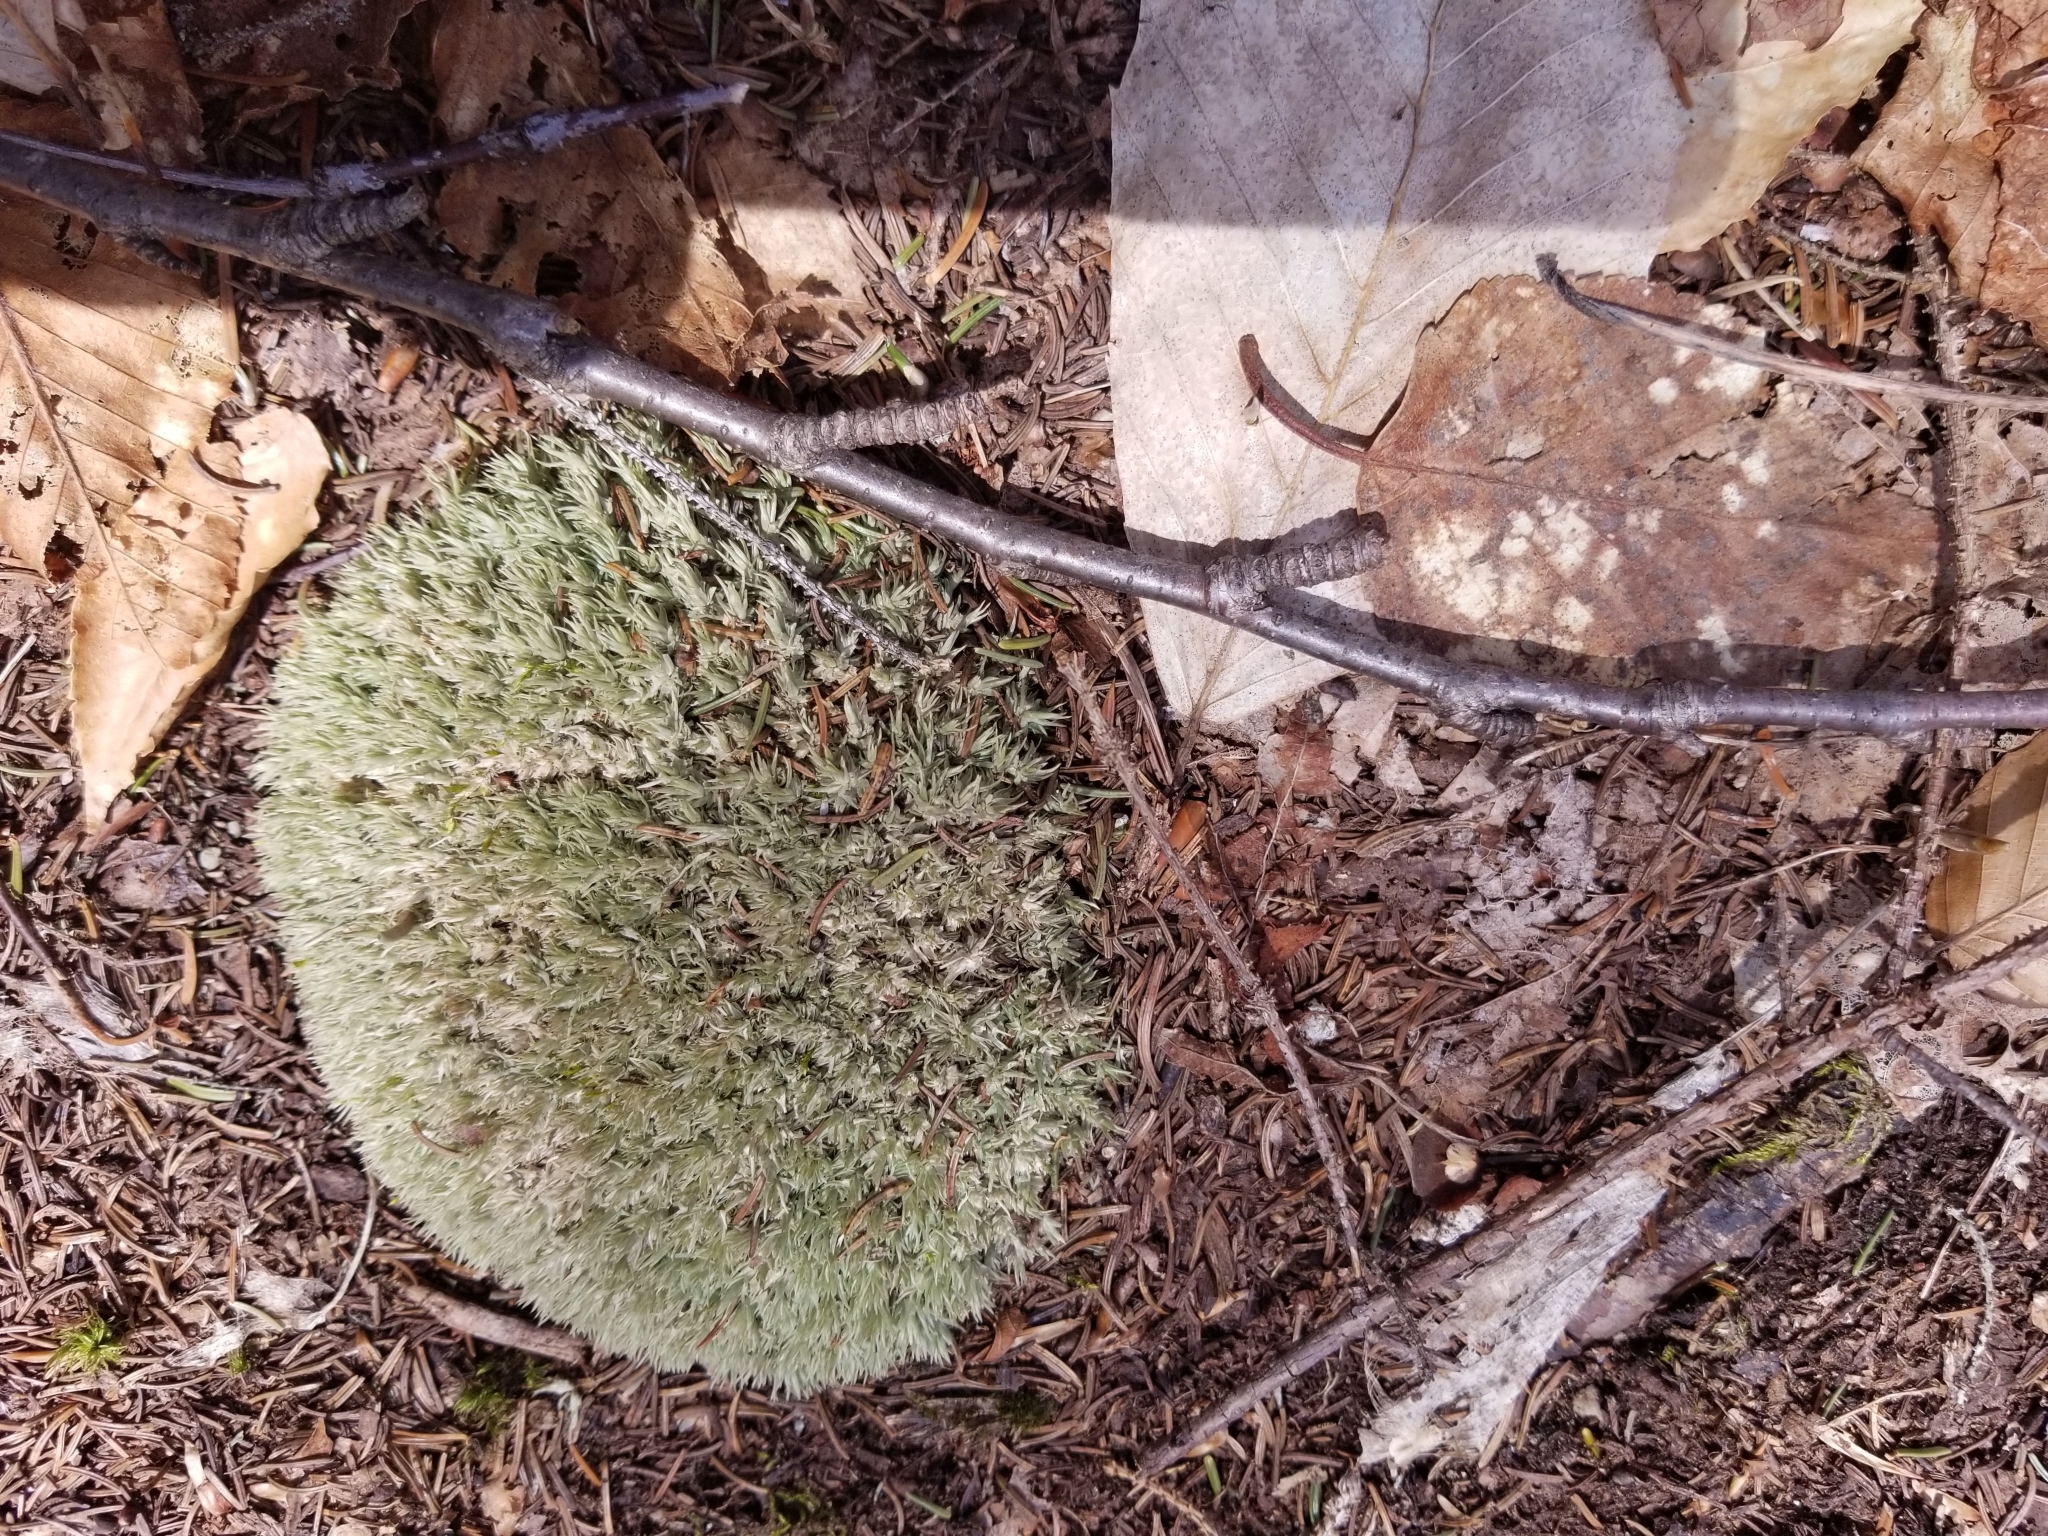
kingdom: Plantae
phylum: Bryophyta
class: Bryopsida
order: Dicranales
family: Leucobryaceae
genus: Leucobryum
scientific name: Leucobryum glaucum
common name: Large white-moss
